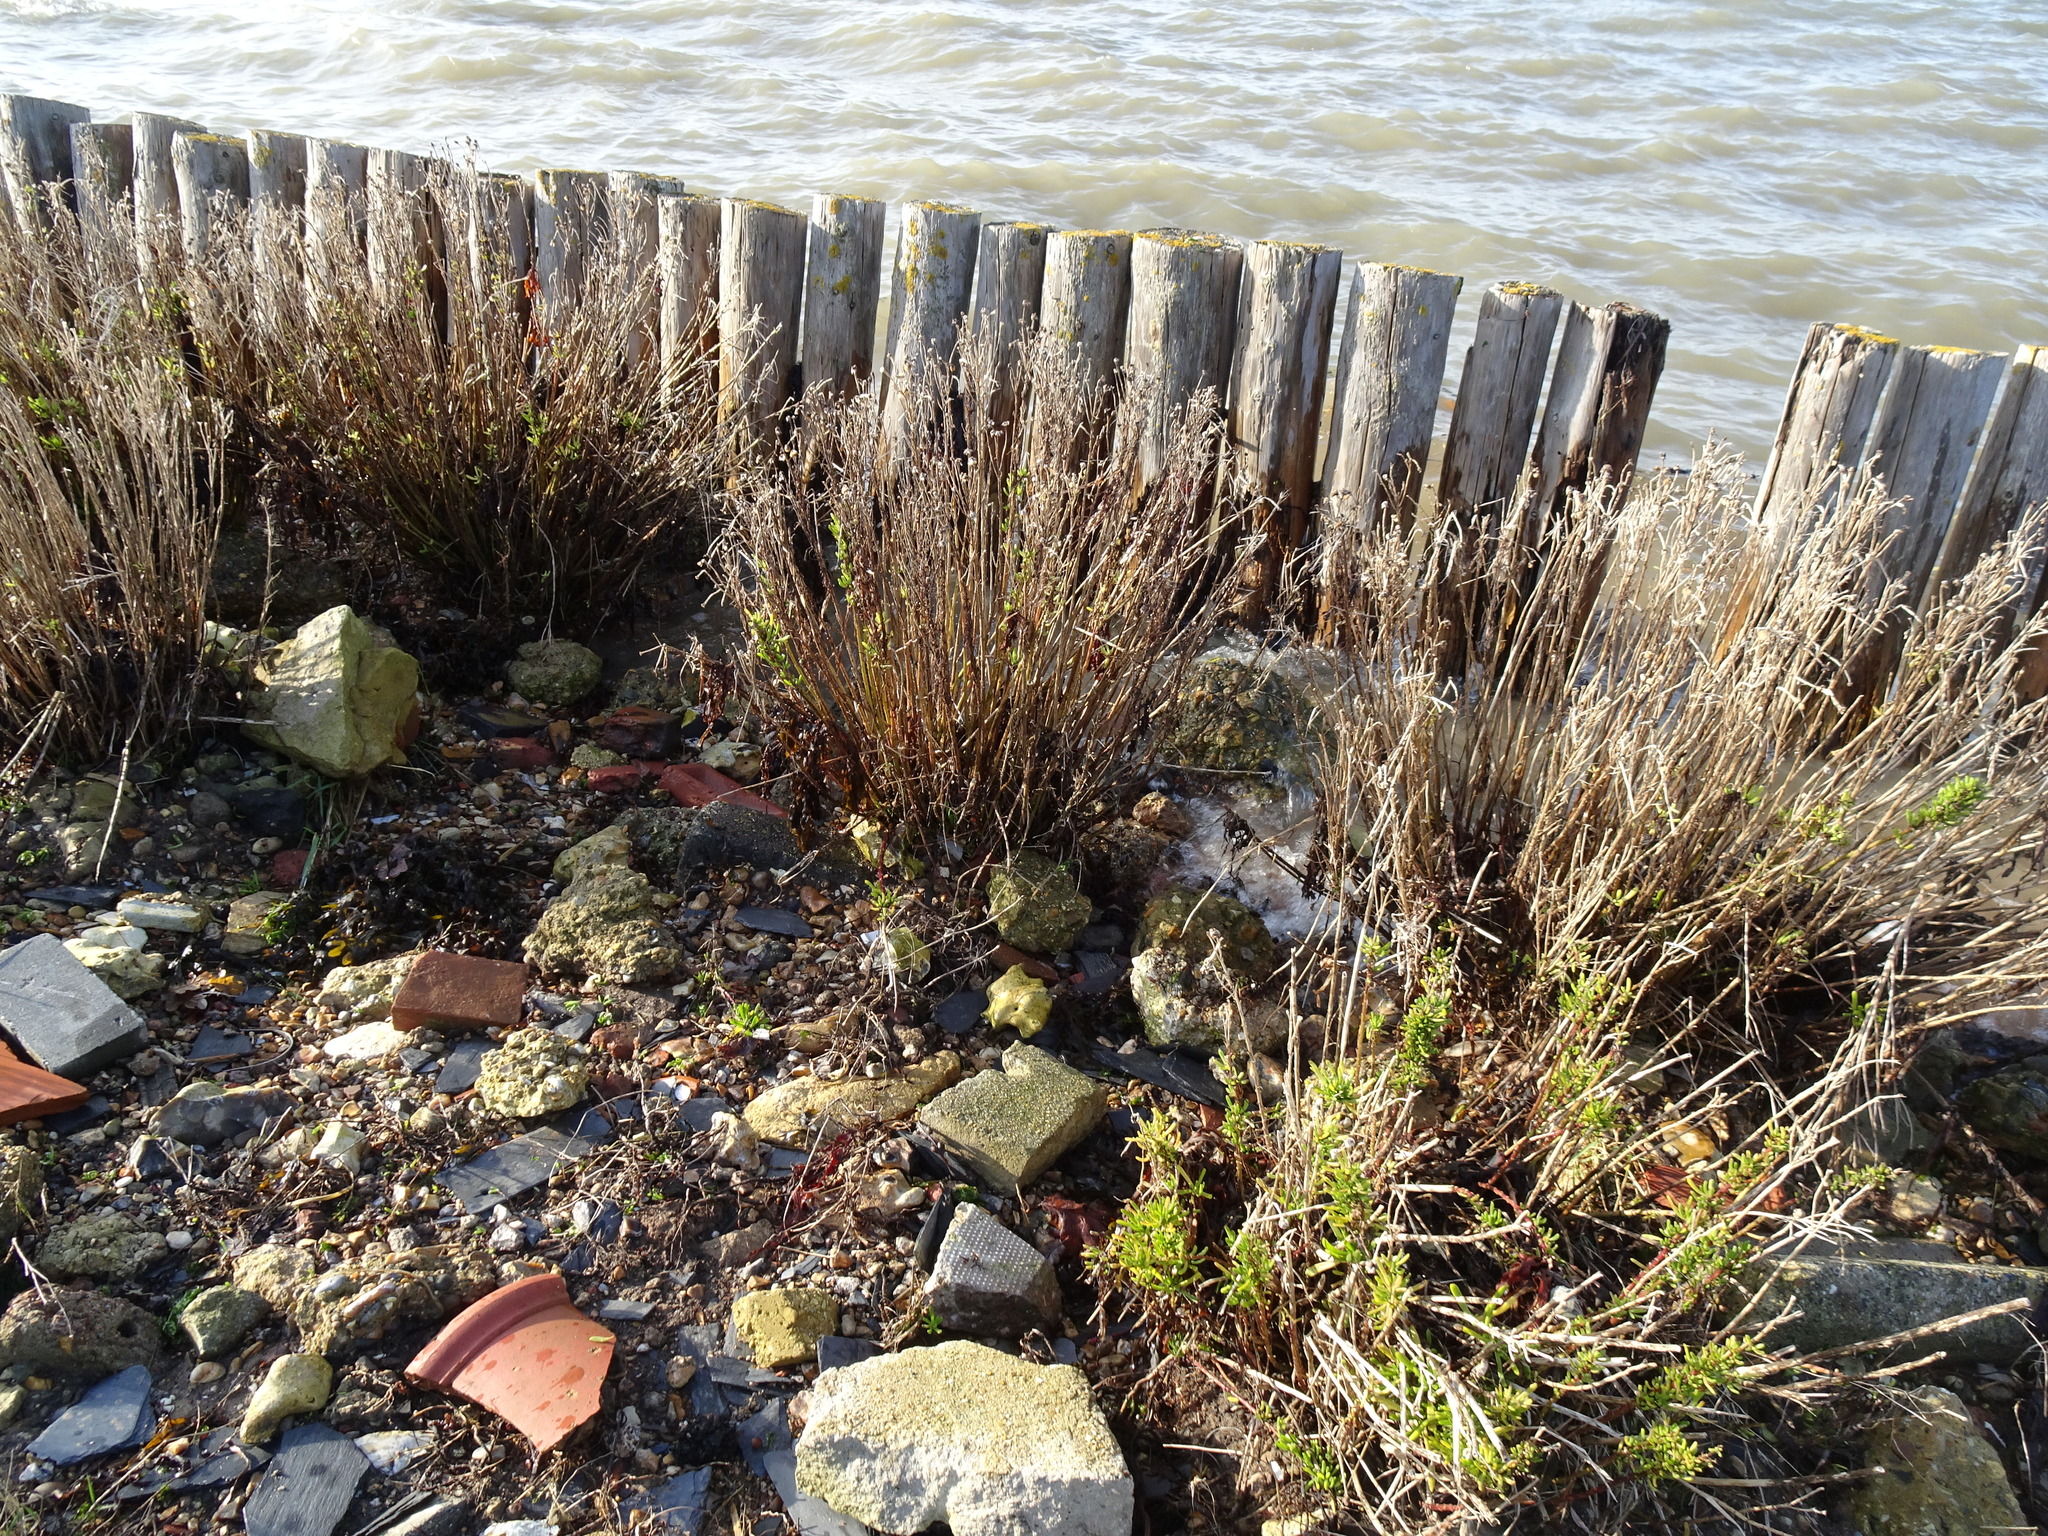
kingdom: Plantae
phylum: Tracheophyta
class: Magnoliopsida
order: Asterales
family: Asteraceae
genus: Limbarda
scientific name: Limbarda crithmoides
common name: Golden samphire
